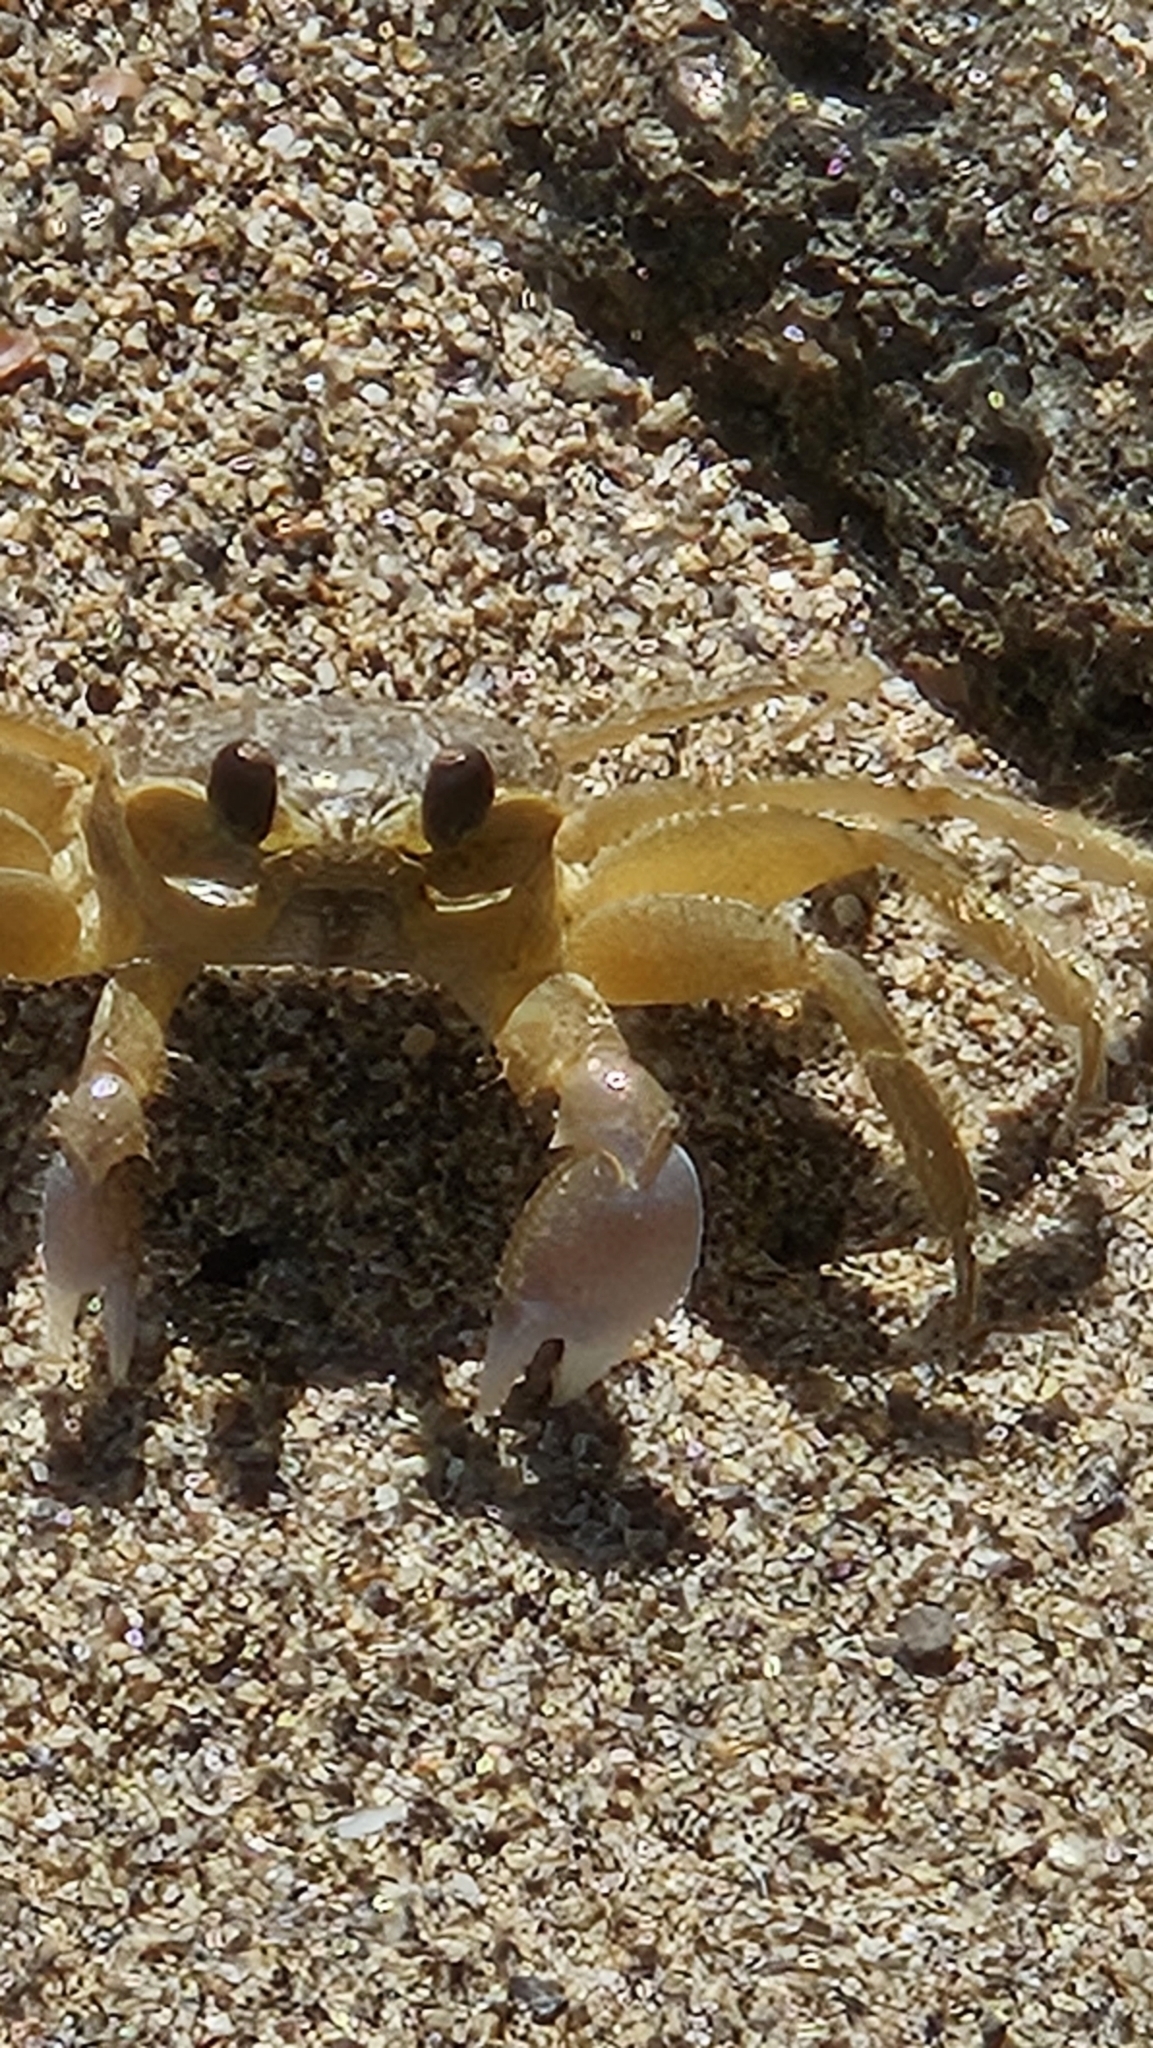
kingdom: Animalia
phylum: Arthropoda
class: Malacostraca
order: Decapoda
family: Ocypodidae
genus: Ocypode
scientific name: Ocypode quadrata
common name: Ghost crab
